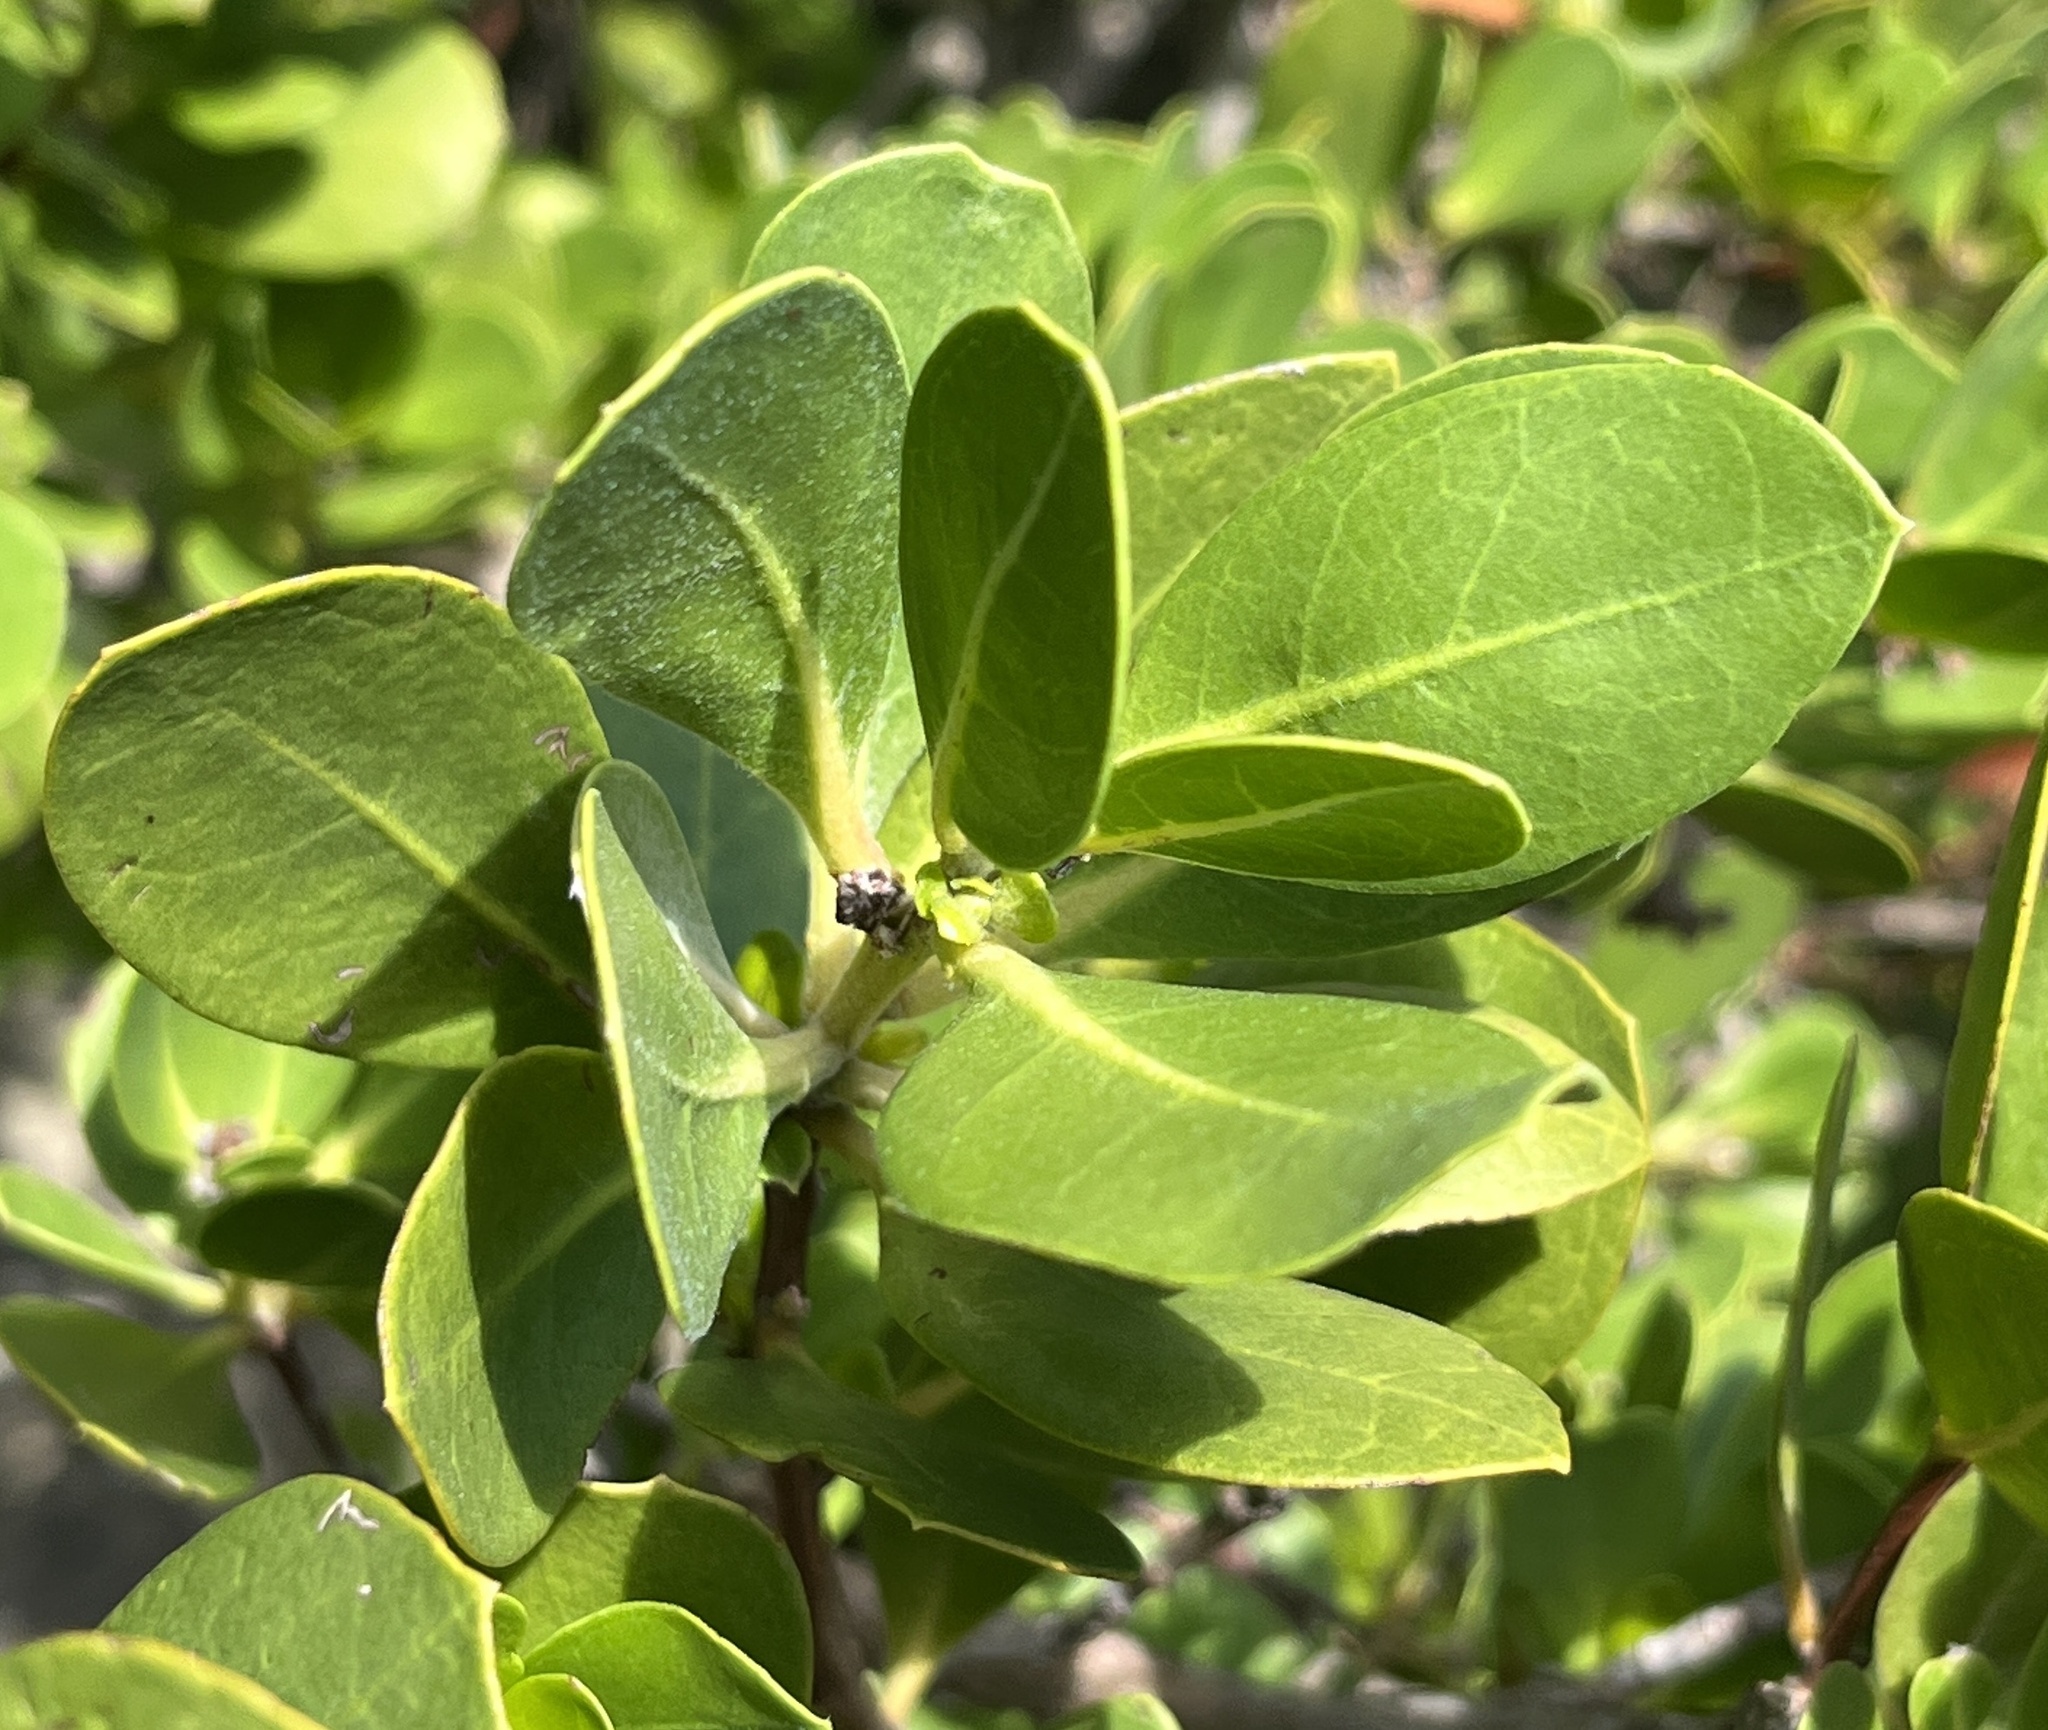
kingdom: Plantae
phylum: Tracheophyta
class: Magnoliopsida
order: Myrtales
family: Combretaceae
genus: Conocarpus
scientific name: Conocarpus erectus
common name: Button mangrove
